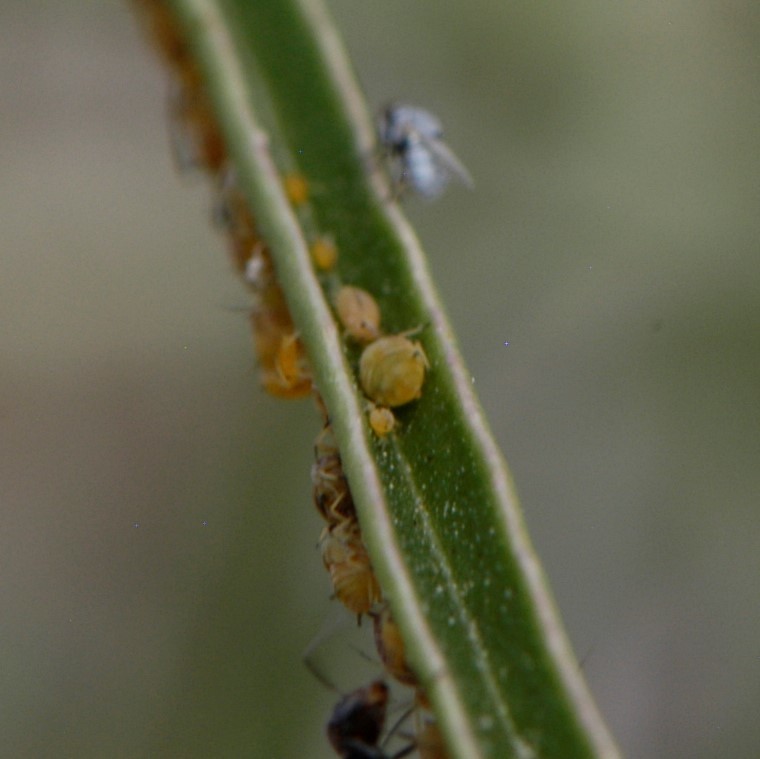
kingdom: Animalia
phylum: Arthropoda
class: Insecta
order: Hemiptera
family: Aphididae
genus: Aphis
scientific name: Aphis asclepiadis
